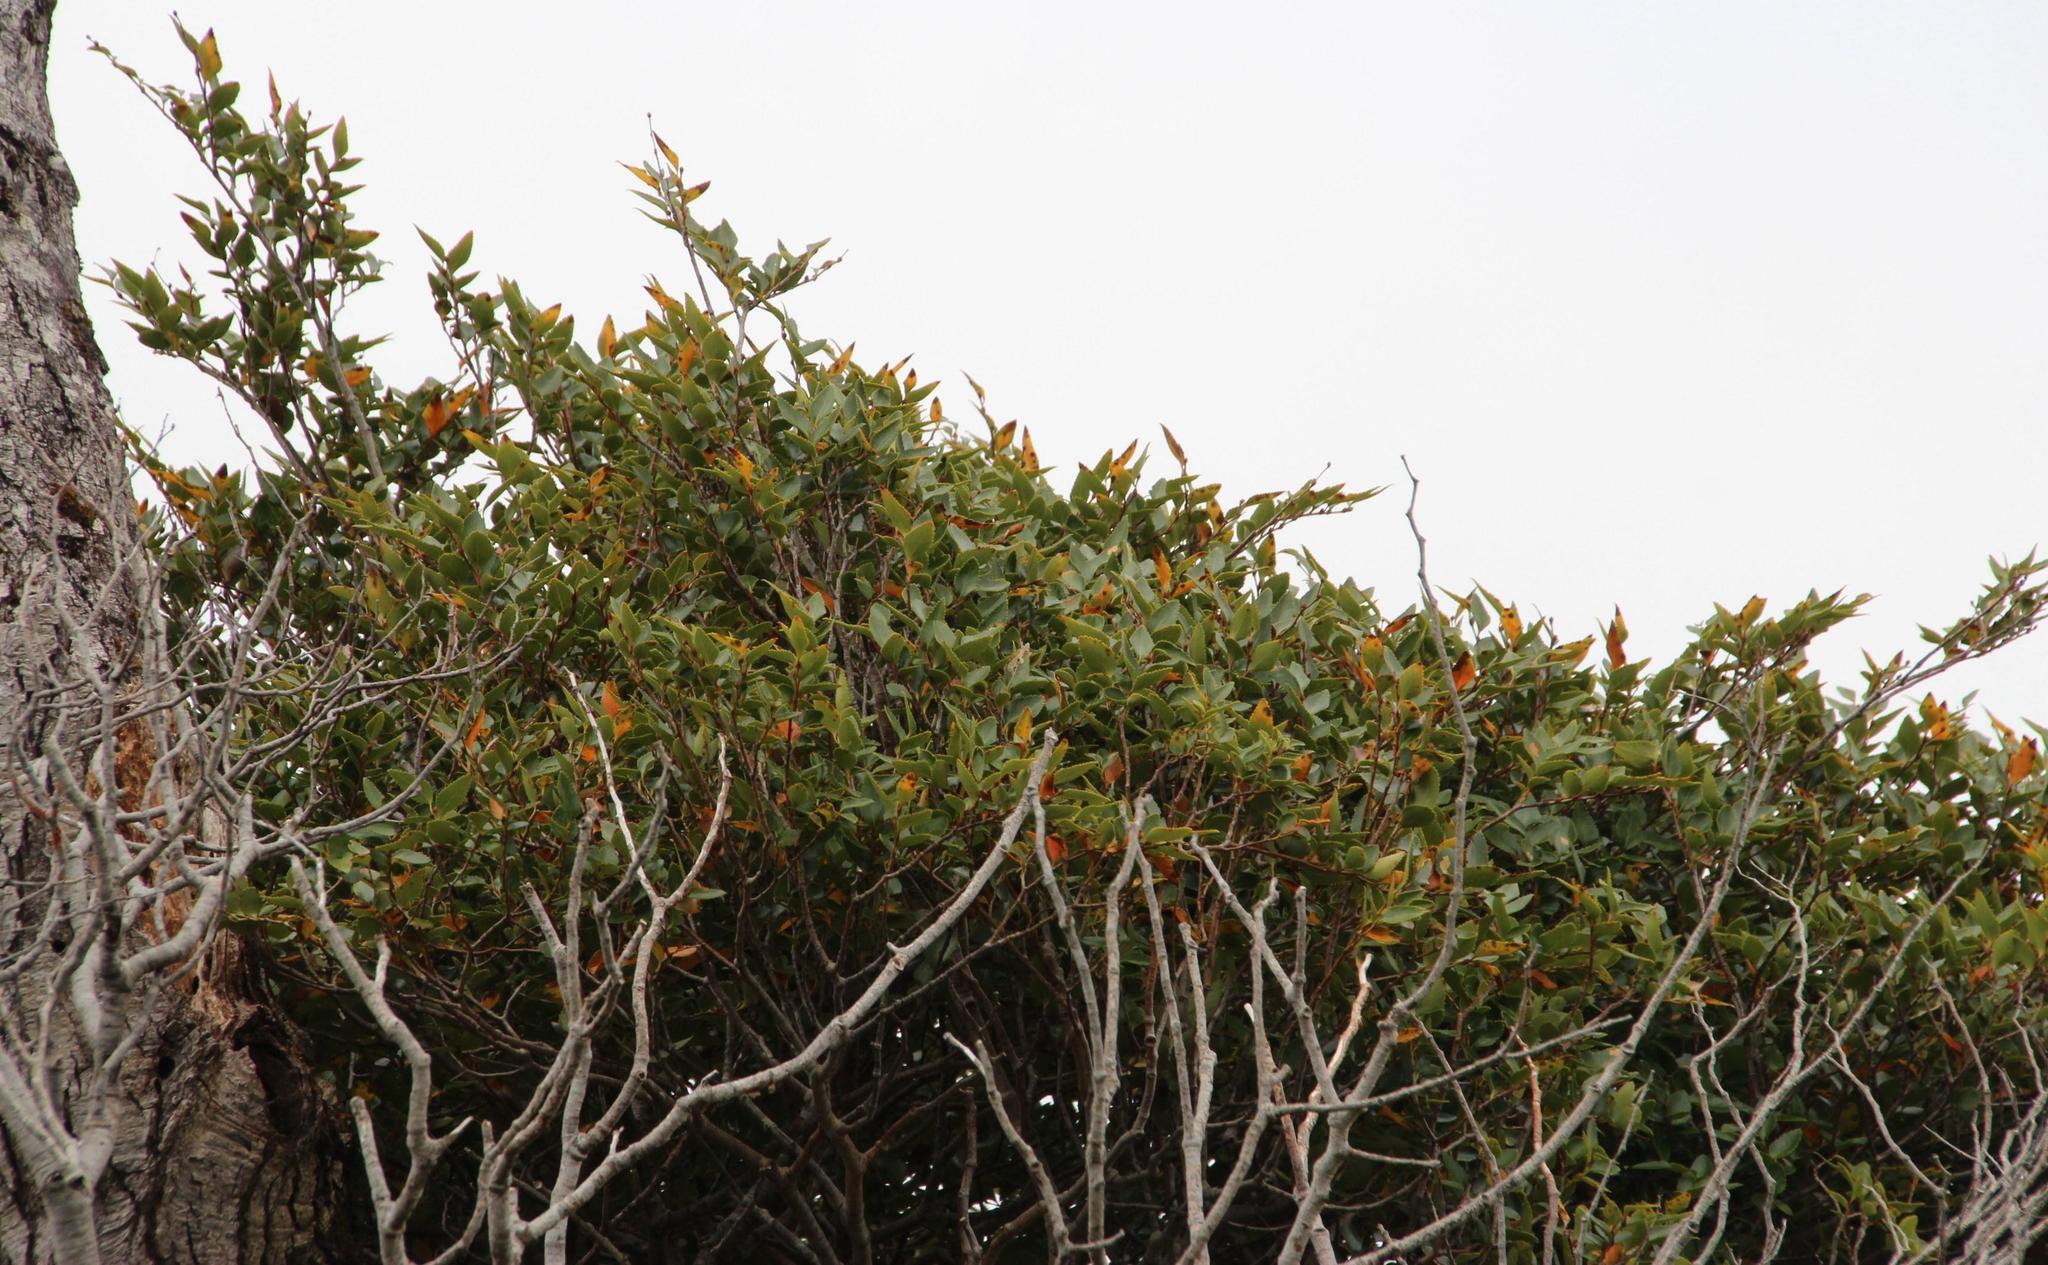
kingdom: Plantae
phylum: Tracheophyta
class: Magnoliopsida
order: Fagales
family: Nothofagaceae
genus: Nothofagus
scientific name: Nothofagus nitida
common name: Chiloé's coigue
